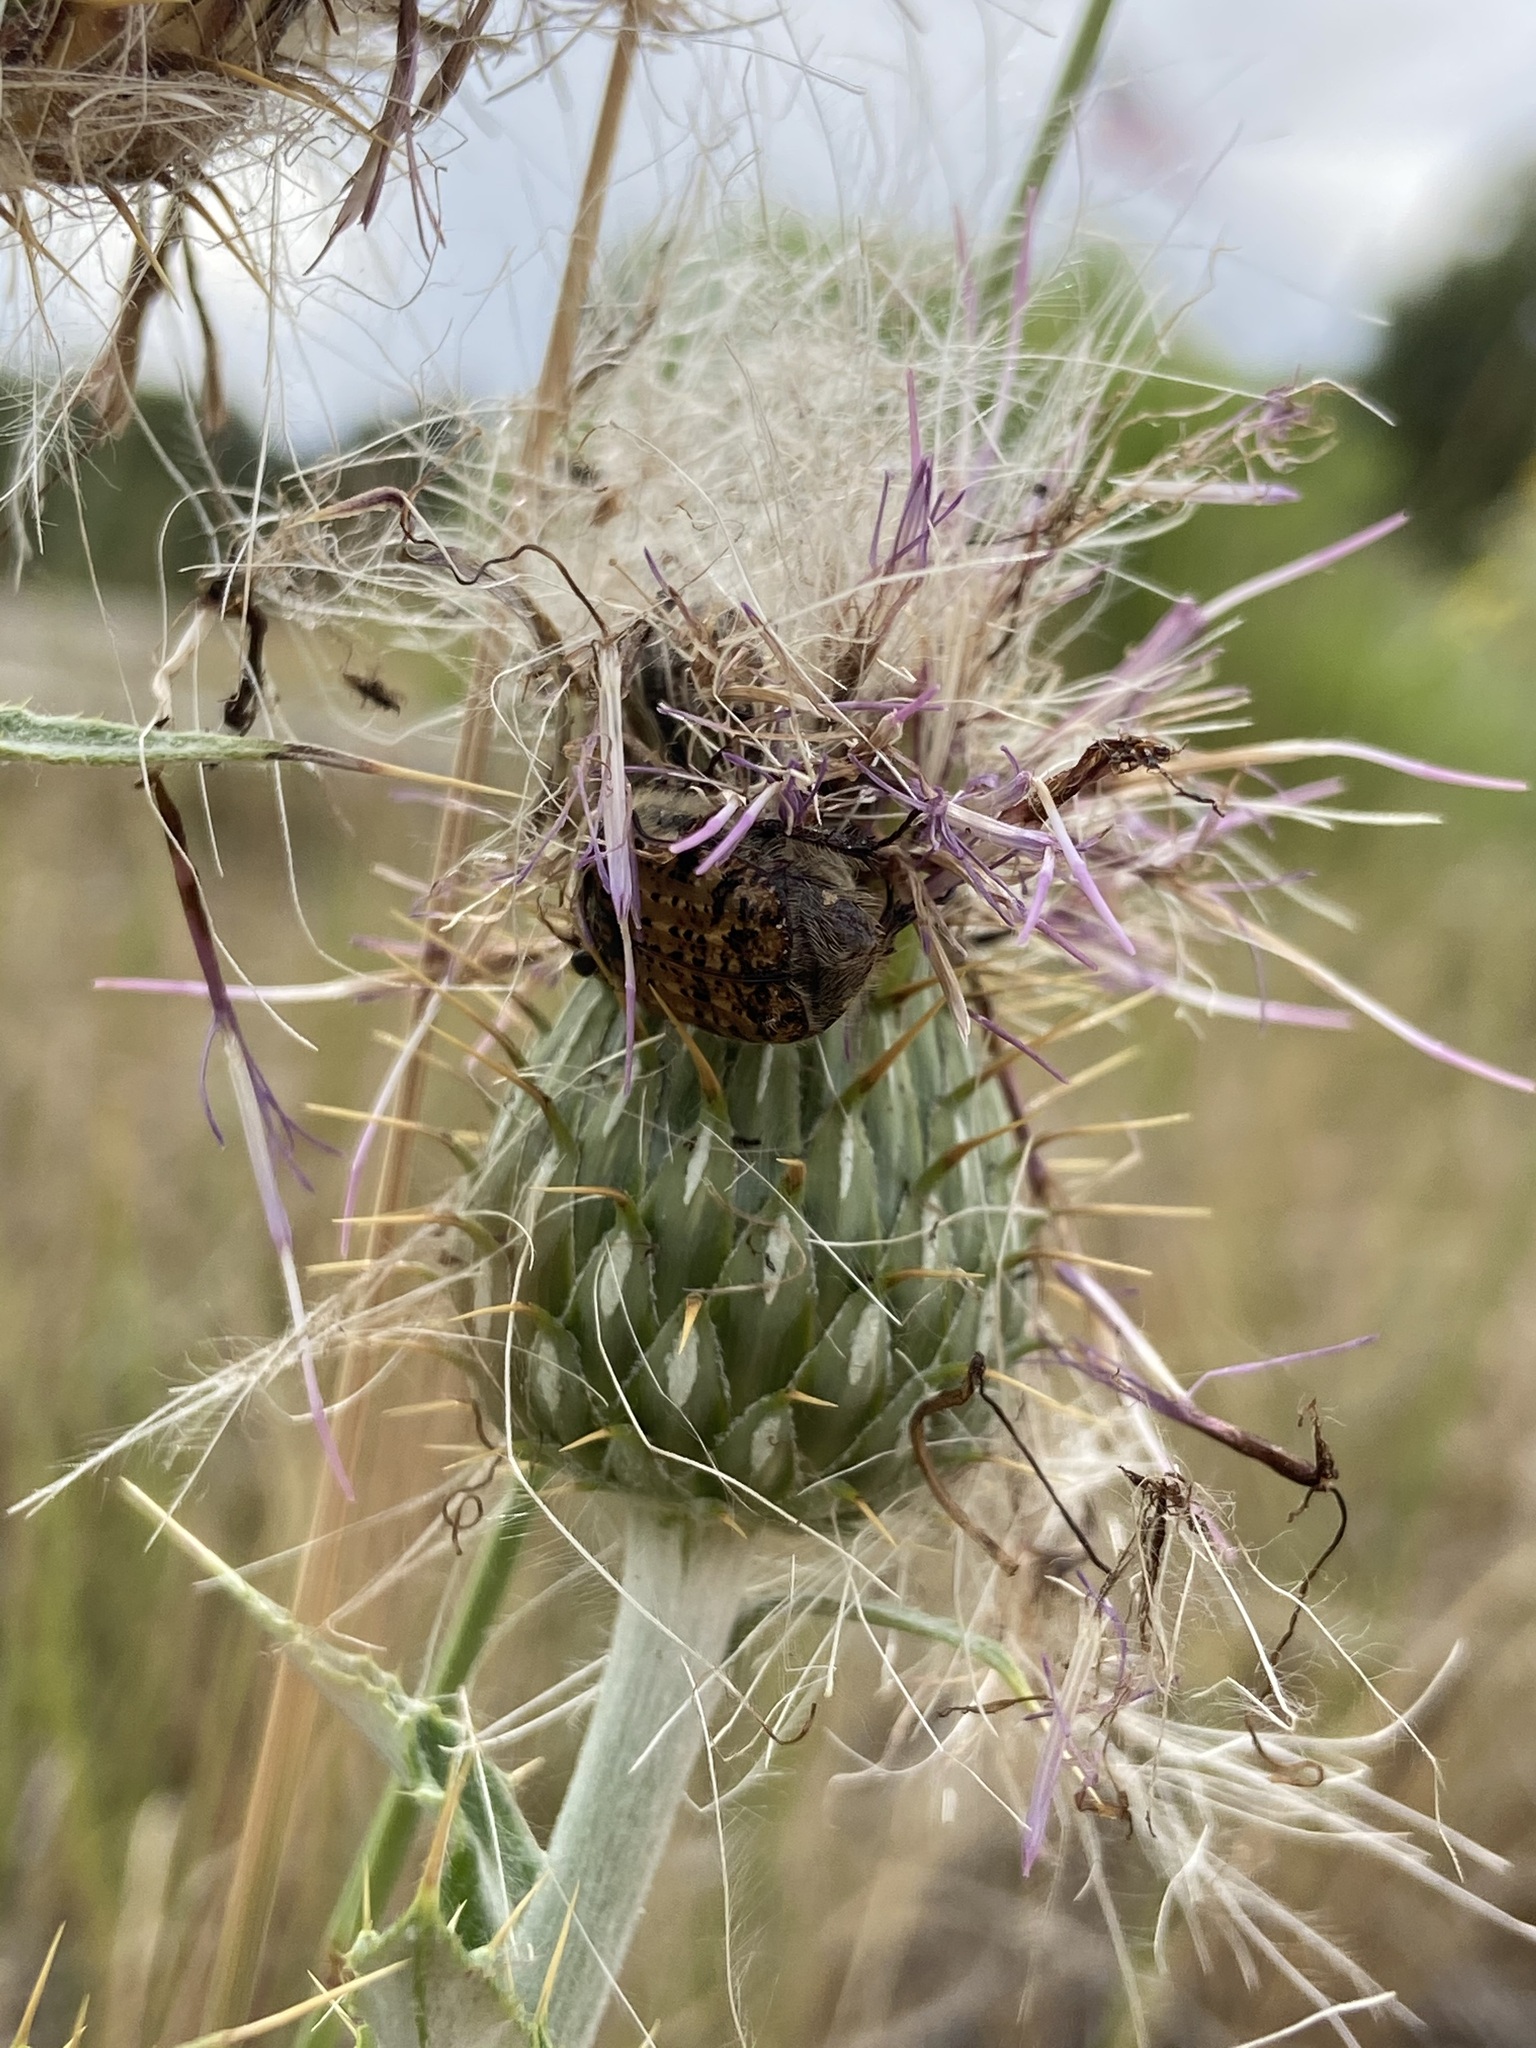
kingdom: Animalia
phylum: Arthropoda
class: Insecta
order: Coleoptera
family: Scarabaeidae
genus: Euphoria
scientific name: Euphoria inda
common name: Bumble flower beetle
